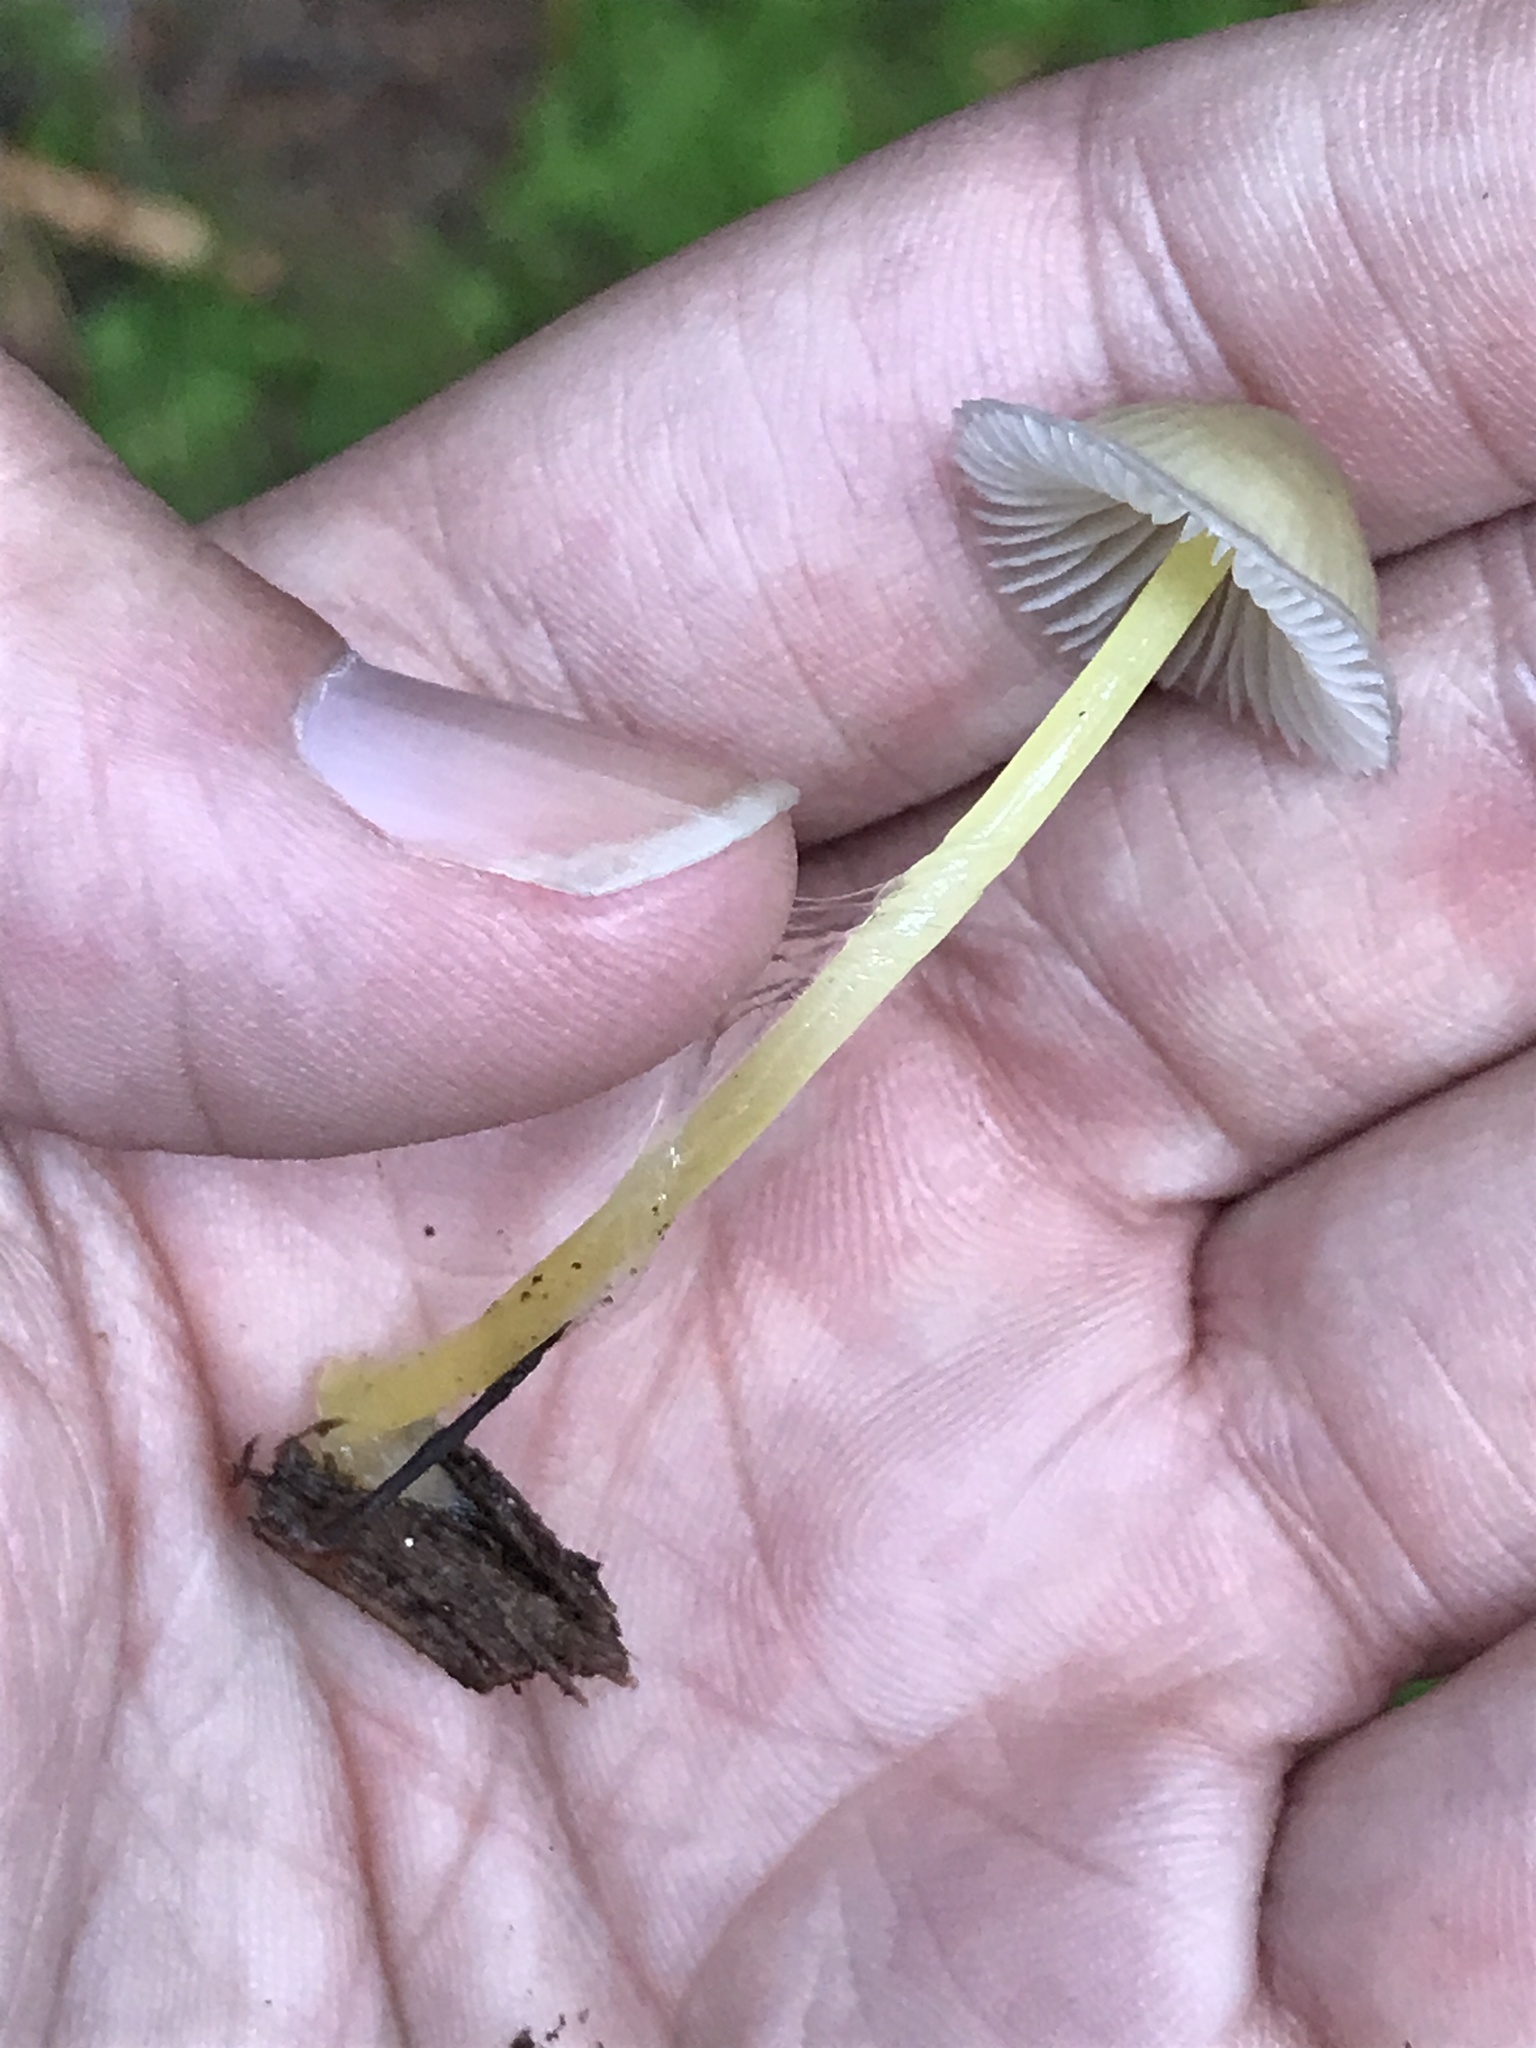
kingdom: Fungi
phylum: Basidiomycota
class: Agaricomycetes
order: Agaricales
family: Mycenaceae
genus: Mycena
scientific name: Mycena epipterygia
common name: Yellowleg bonnet
